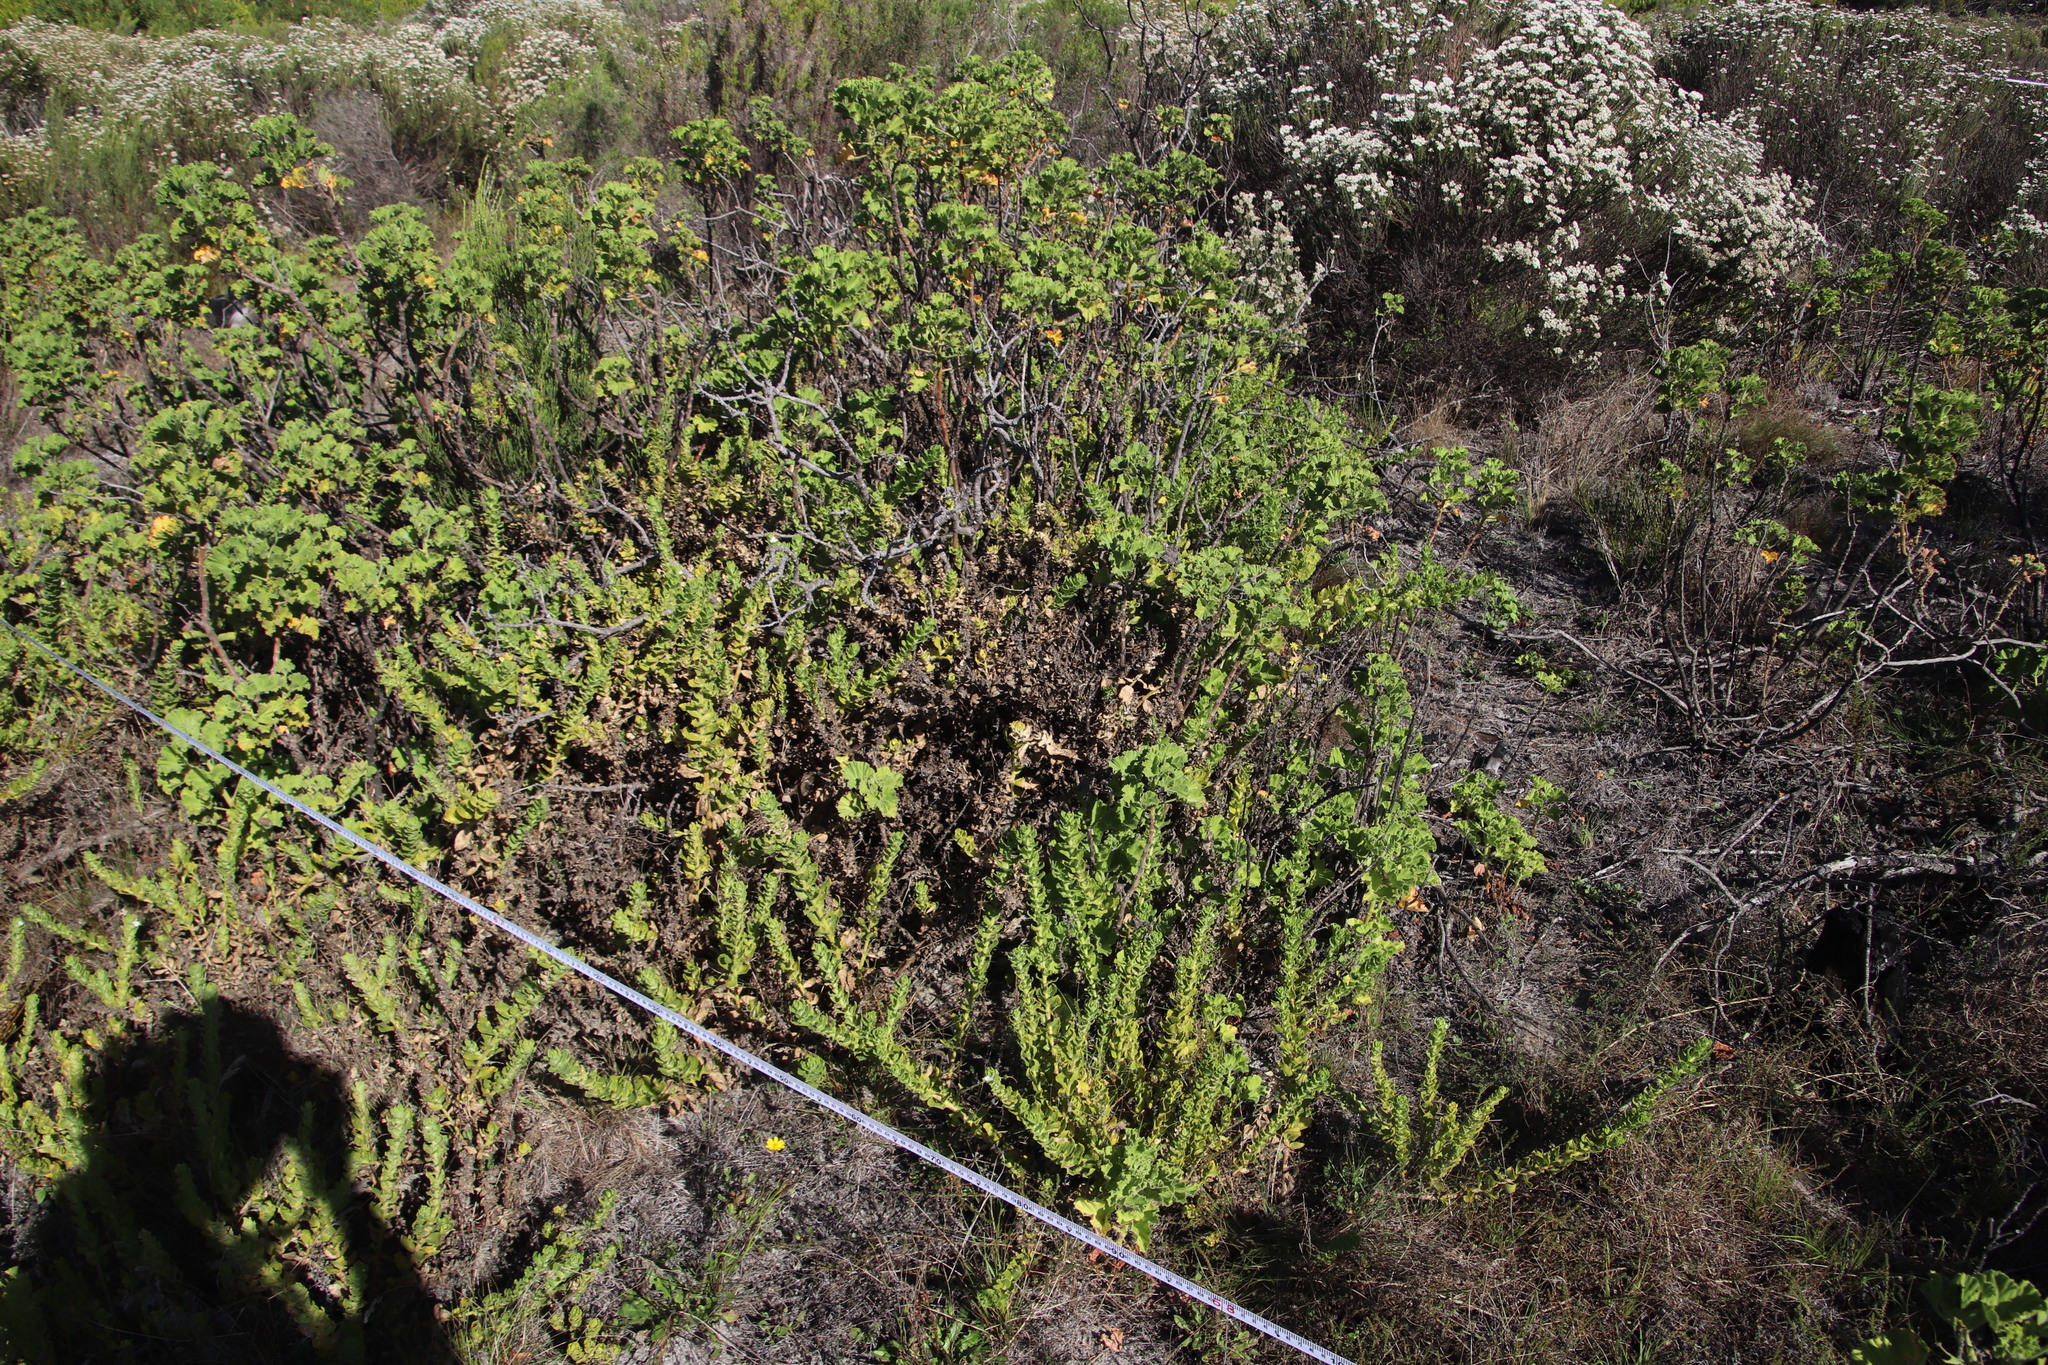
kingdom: Plantae
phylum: Tracheophyta
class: Magnoliopsida
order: Lamiales
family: Scrophulariaceae
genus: Oftia
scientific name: Oftia africana
